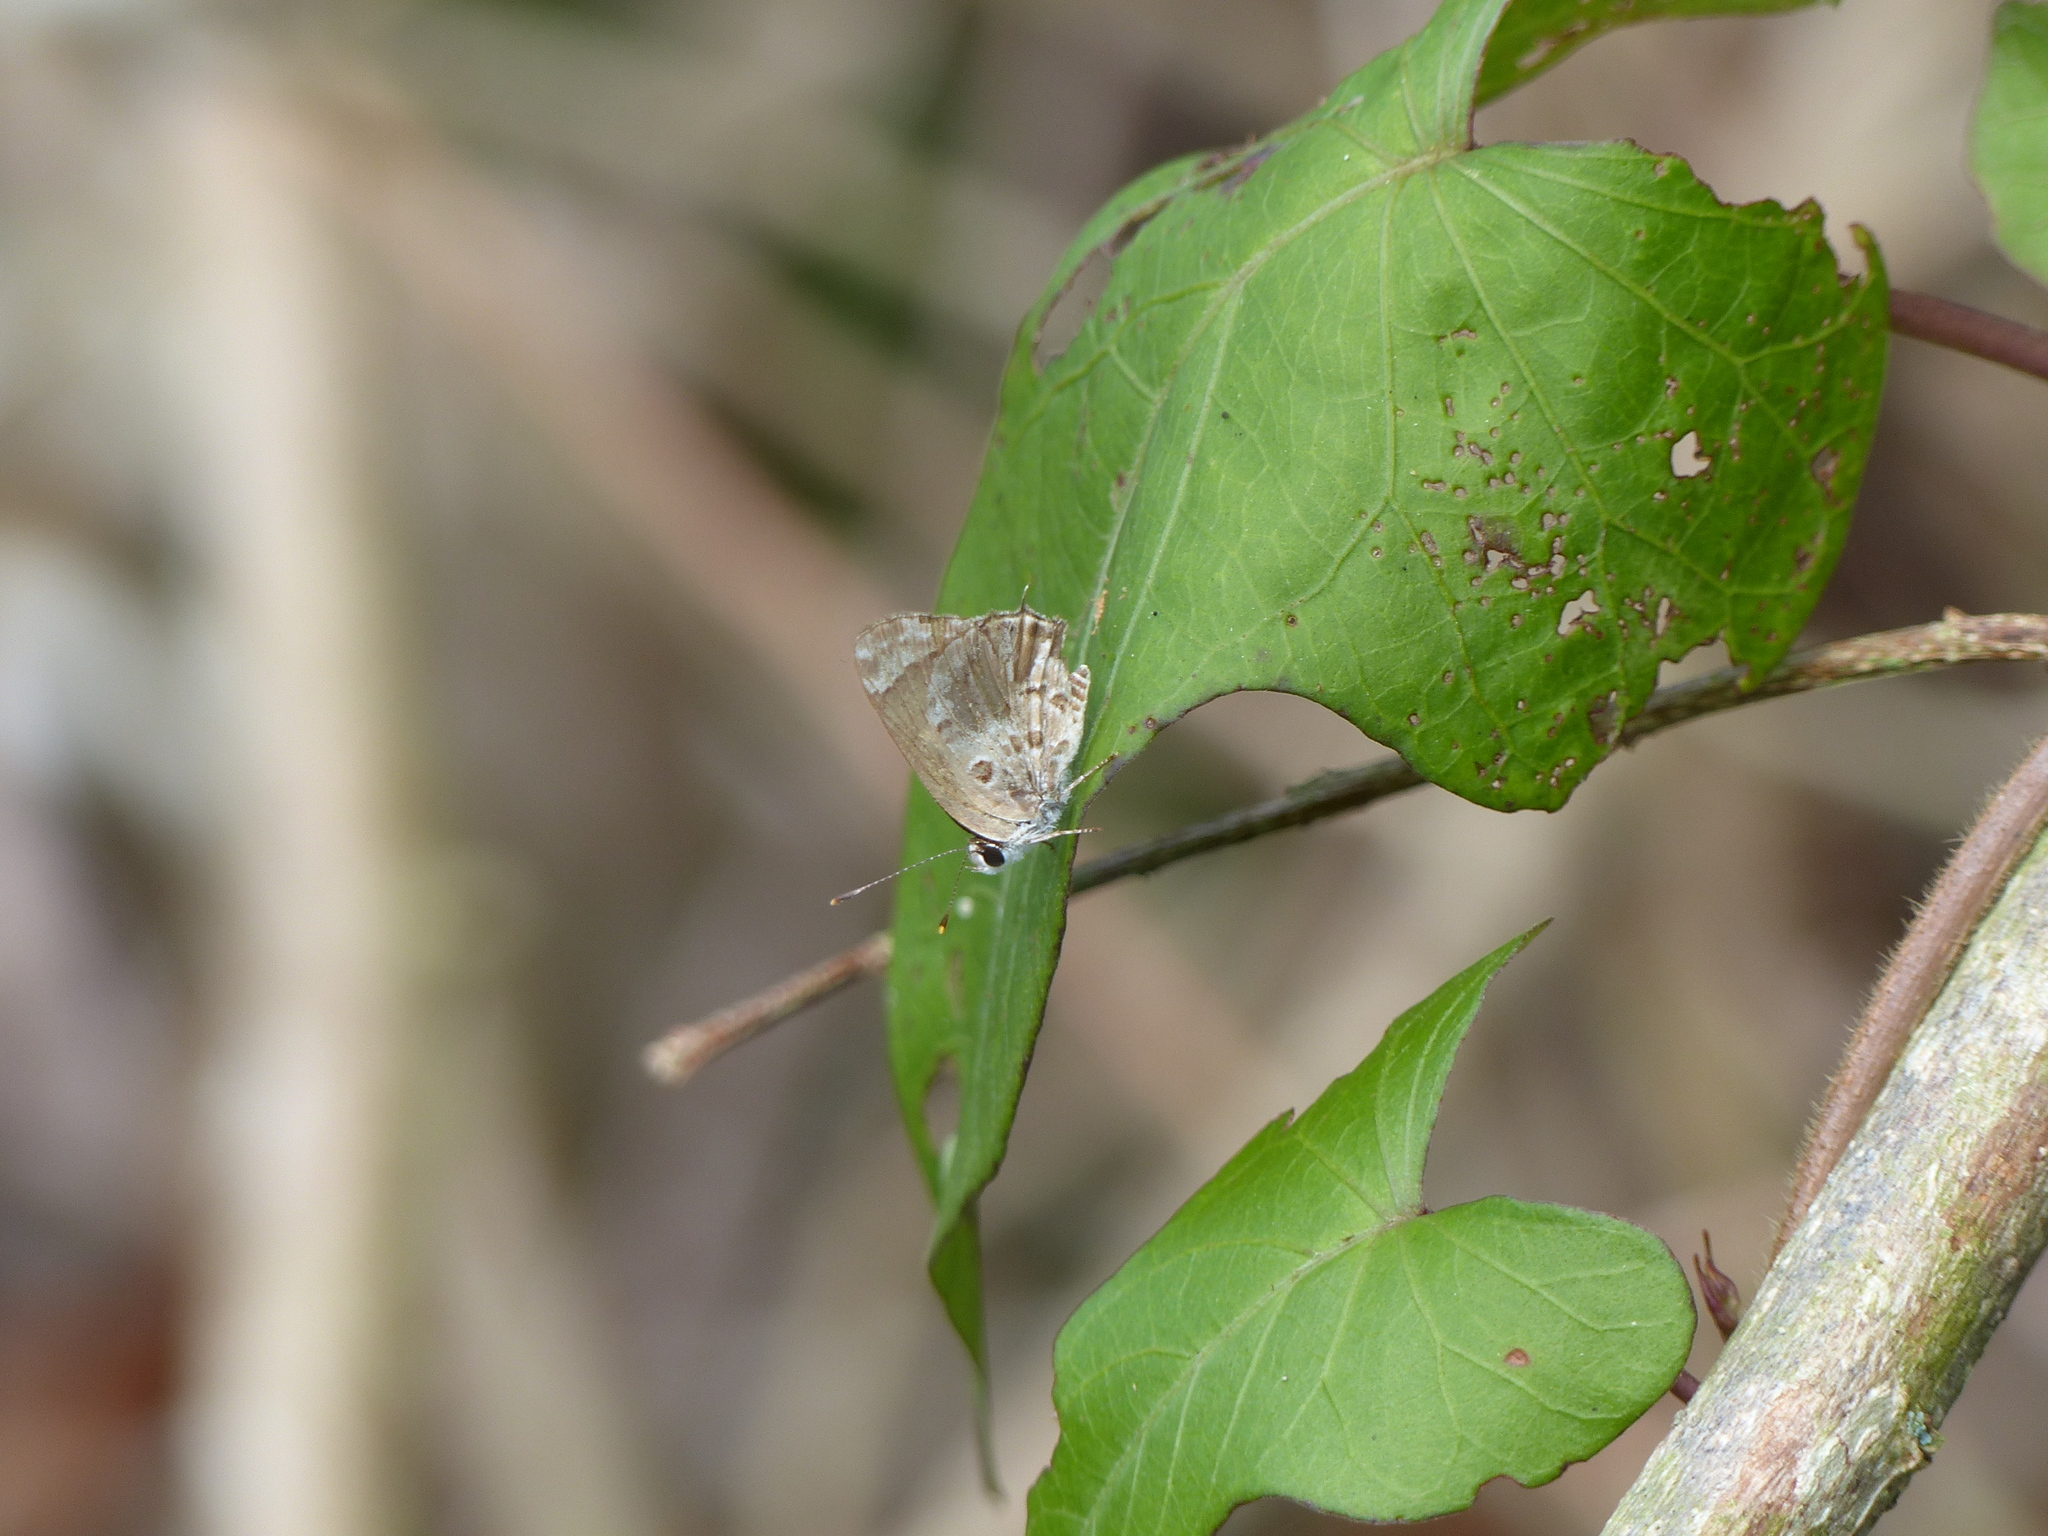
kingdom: Animalia
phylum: Arthropoda
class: Insecta
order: Lepidoptera
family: Lycaenidae
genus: Strymon
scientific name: Strymon astiocha
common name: Gray-spotted scrub-hairstreak
